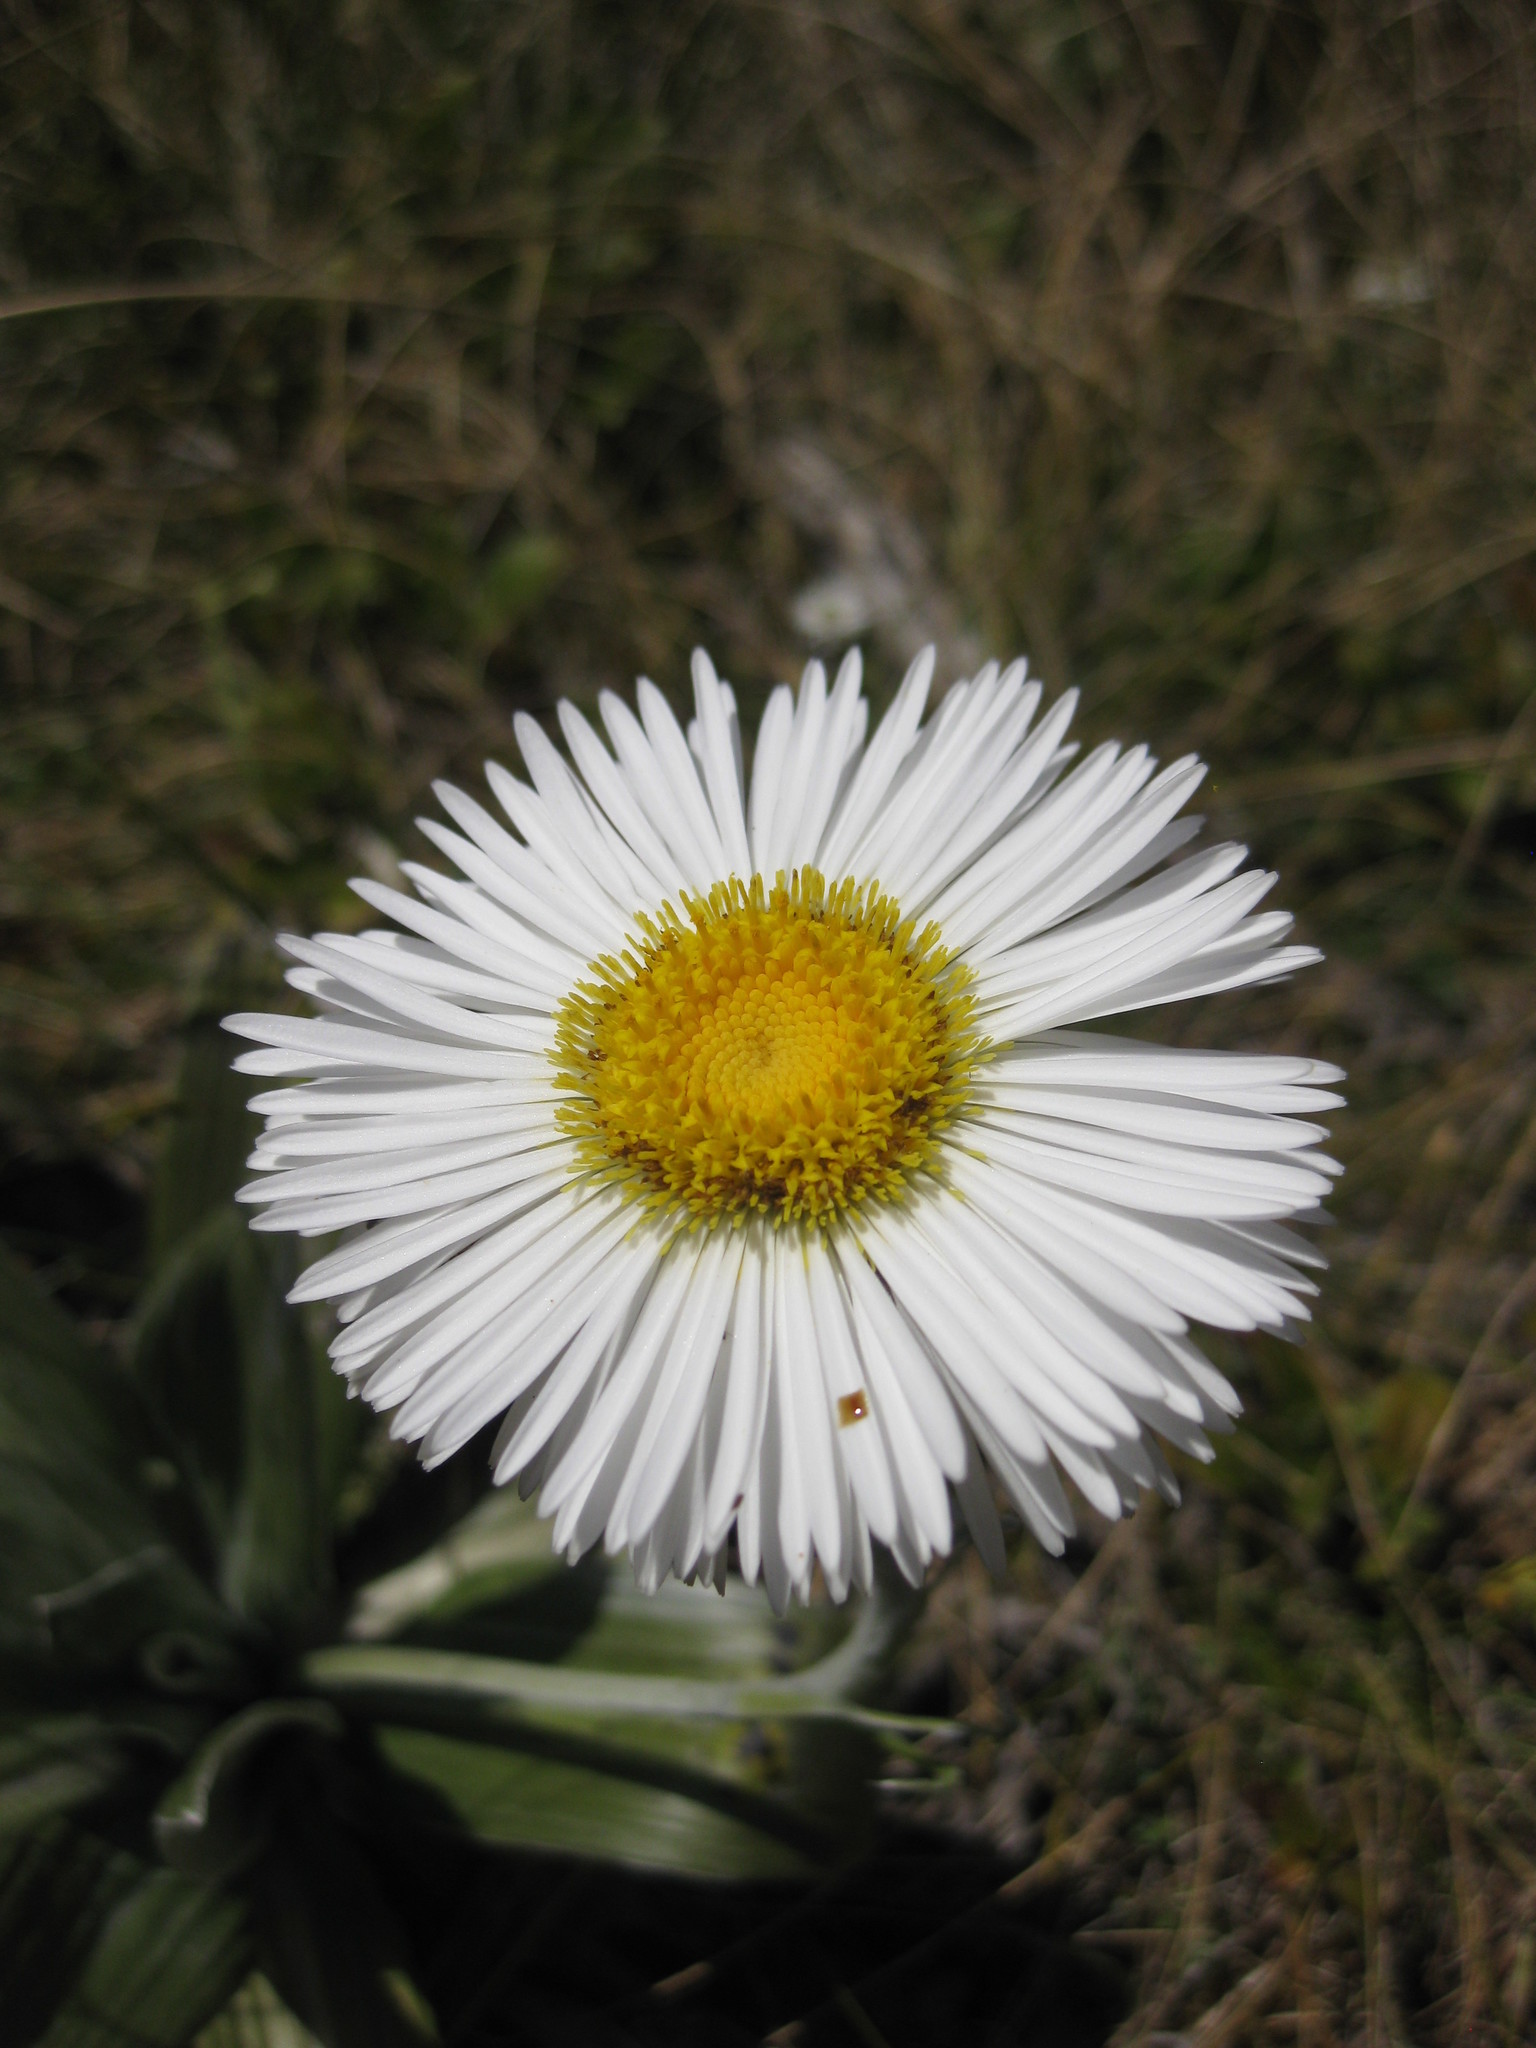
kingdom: Plantae
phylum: Tracheophyta
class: Magnoliopsida
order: Asterales
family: Asteraceae
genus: Celmisia
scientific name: Celmisia semicordata
